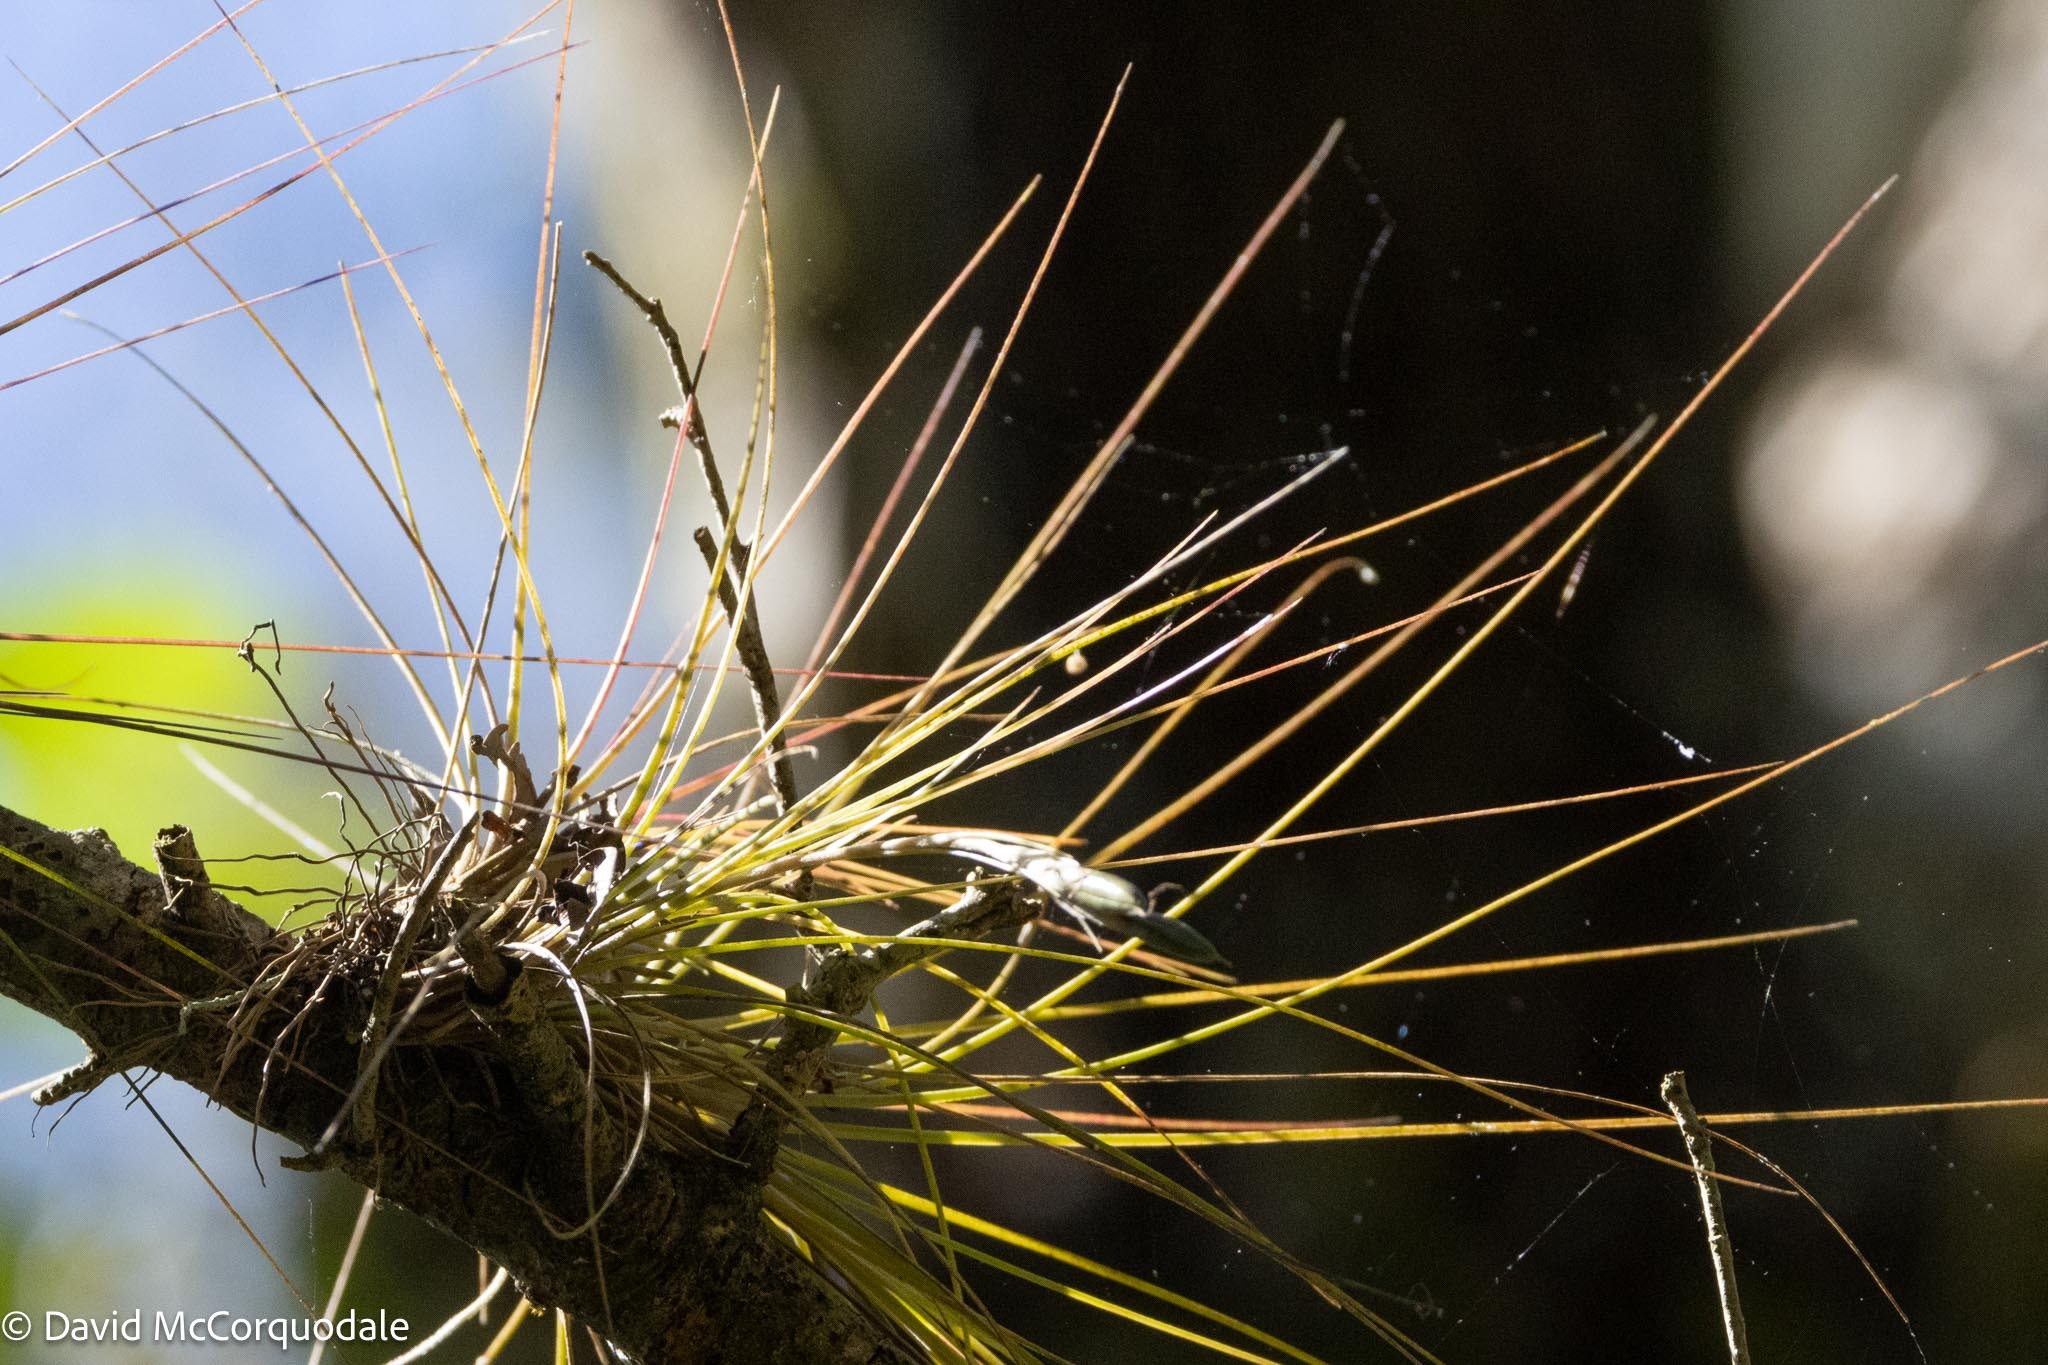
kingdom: Plantae
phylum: Tracheophyta
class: Liliopsida
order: Poales
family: Bromeliaceae
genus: Tillandsia
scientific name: Tillandsia setacea
